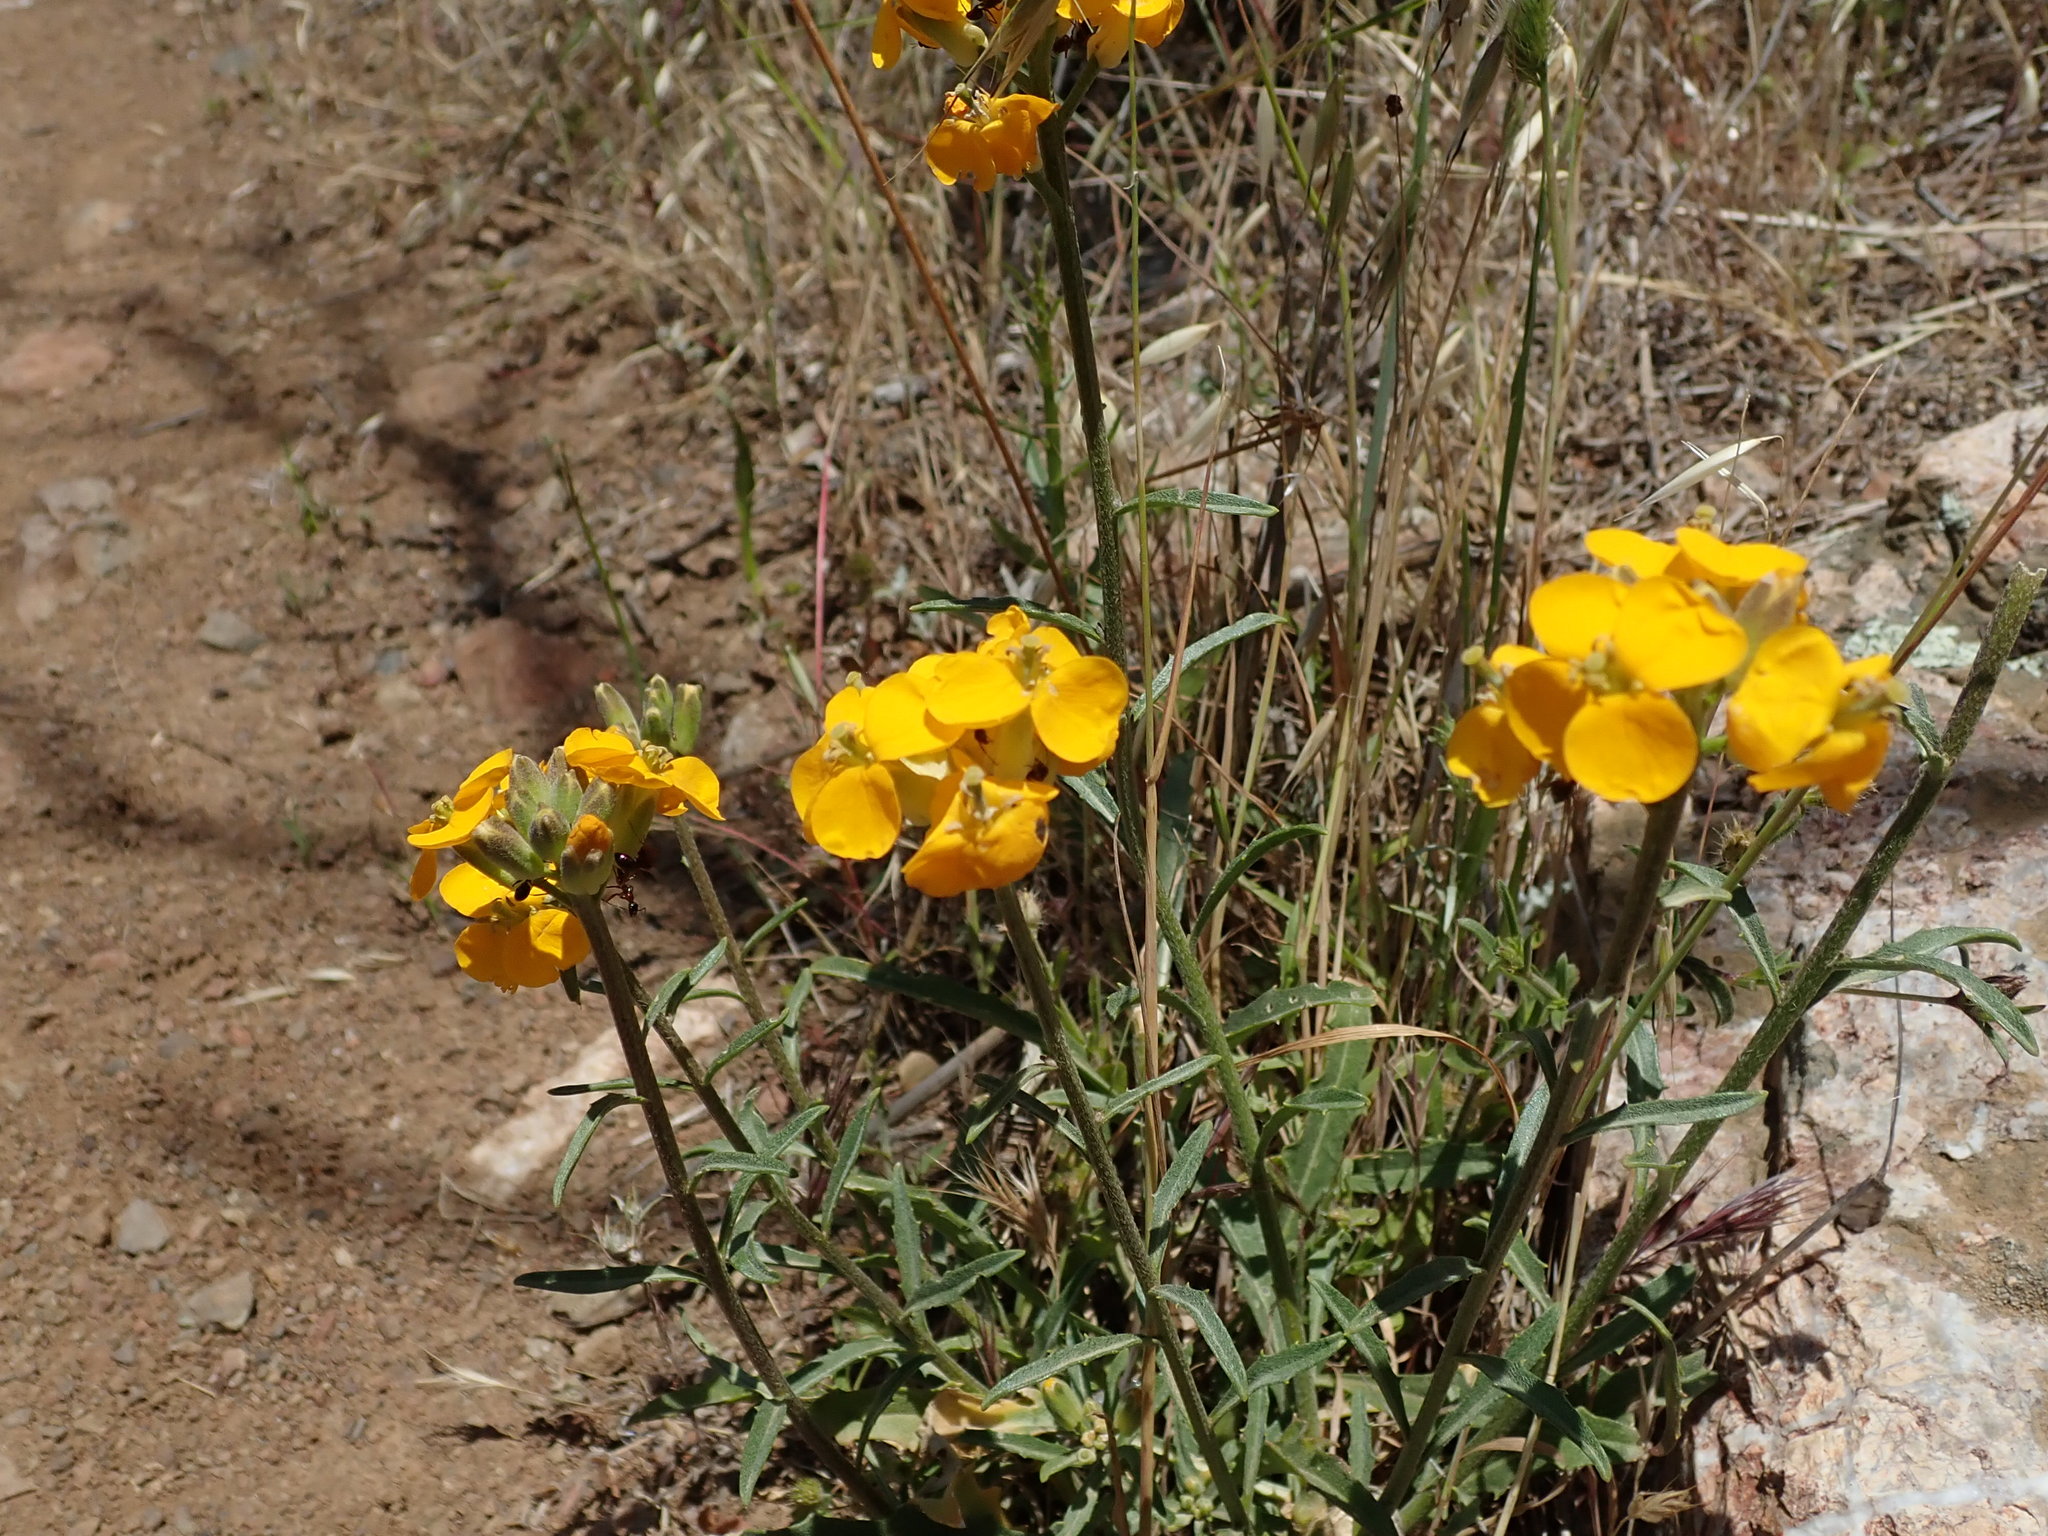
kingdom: Plantae
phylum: Tracheophyta
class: Magnoliopsida
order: Brassicales
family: Brassicaceae
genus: Erysimum
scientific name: Erysimum capitatum
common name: Western wallflower
